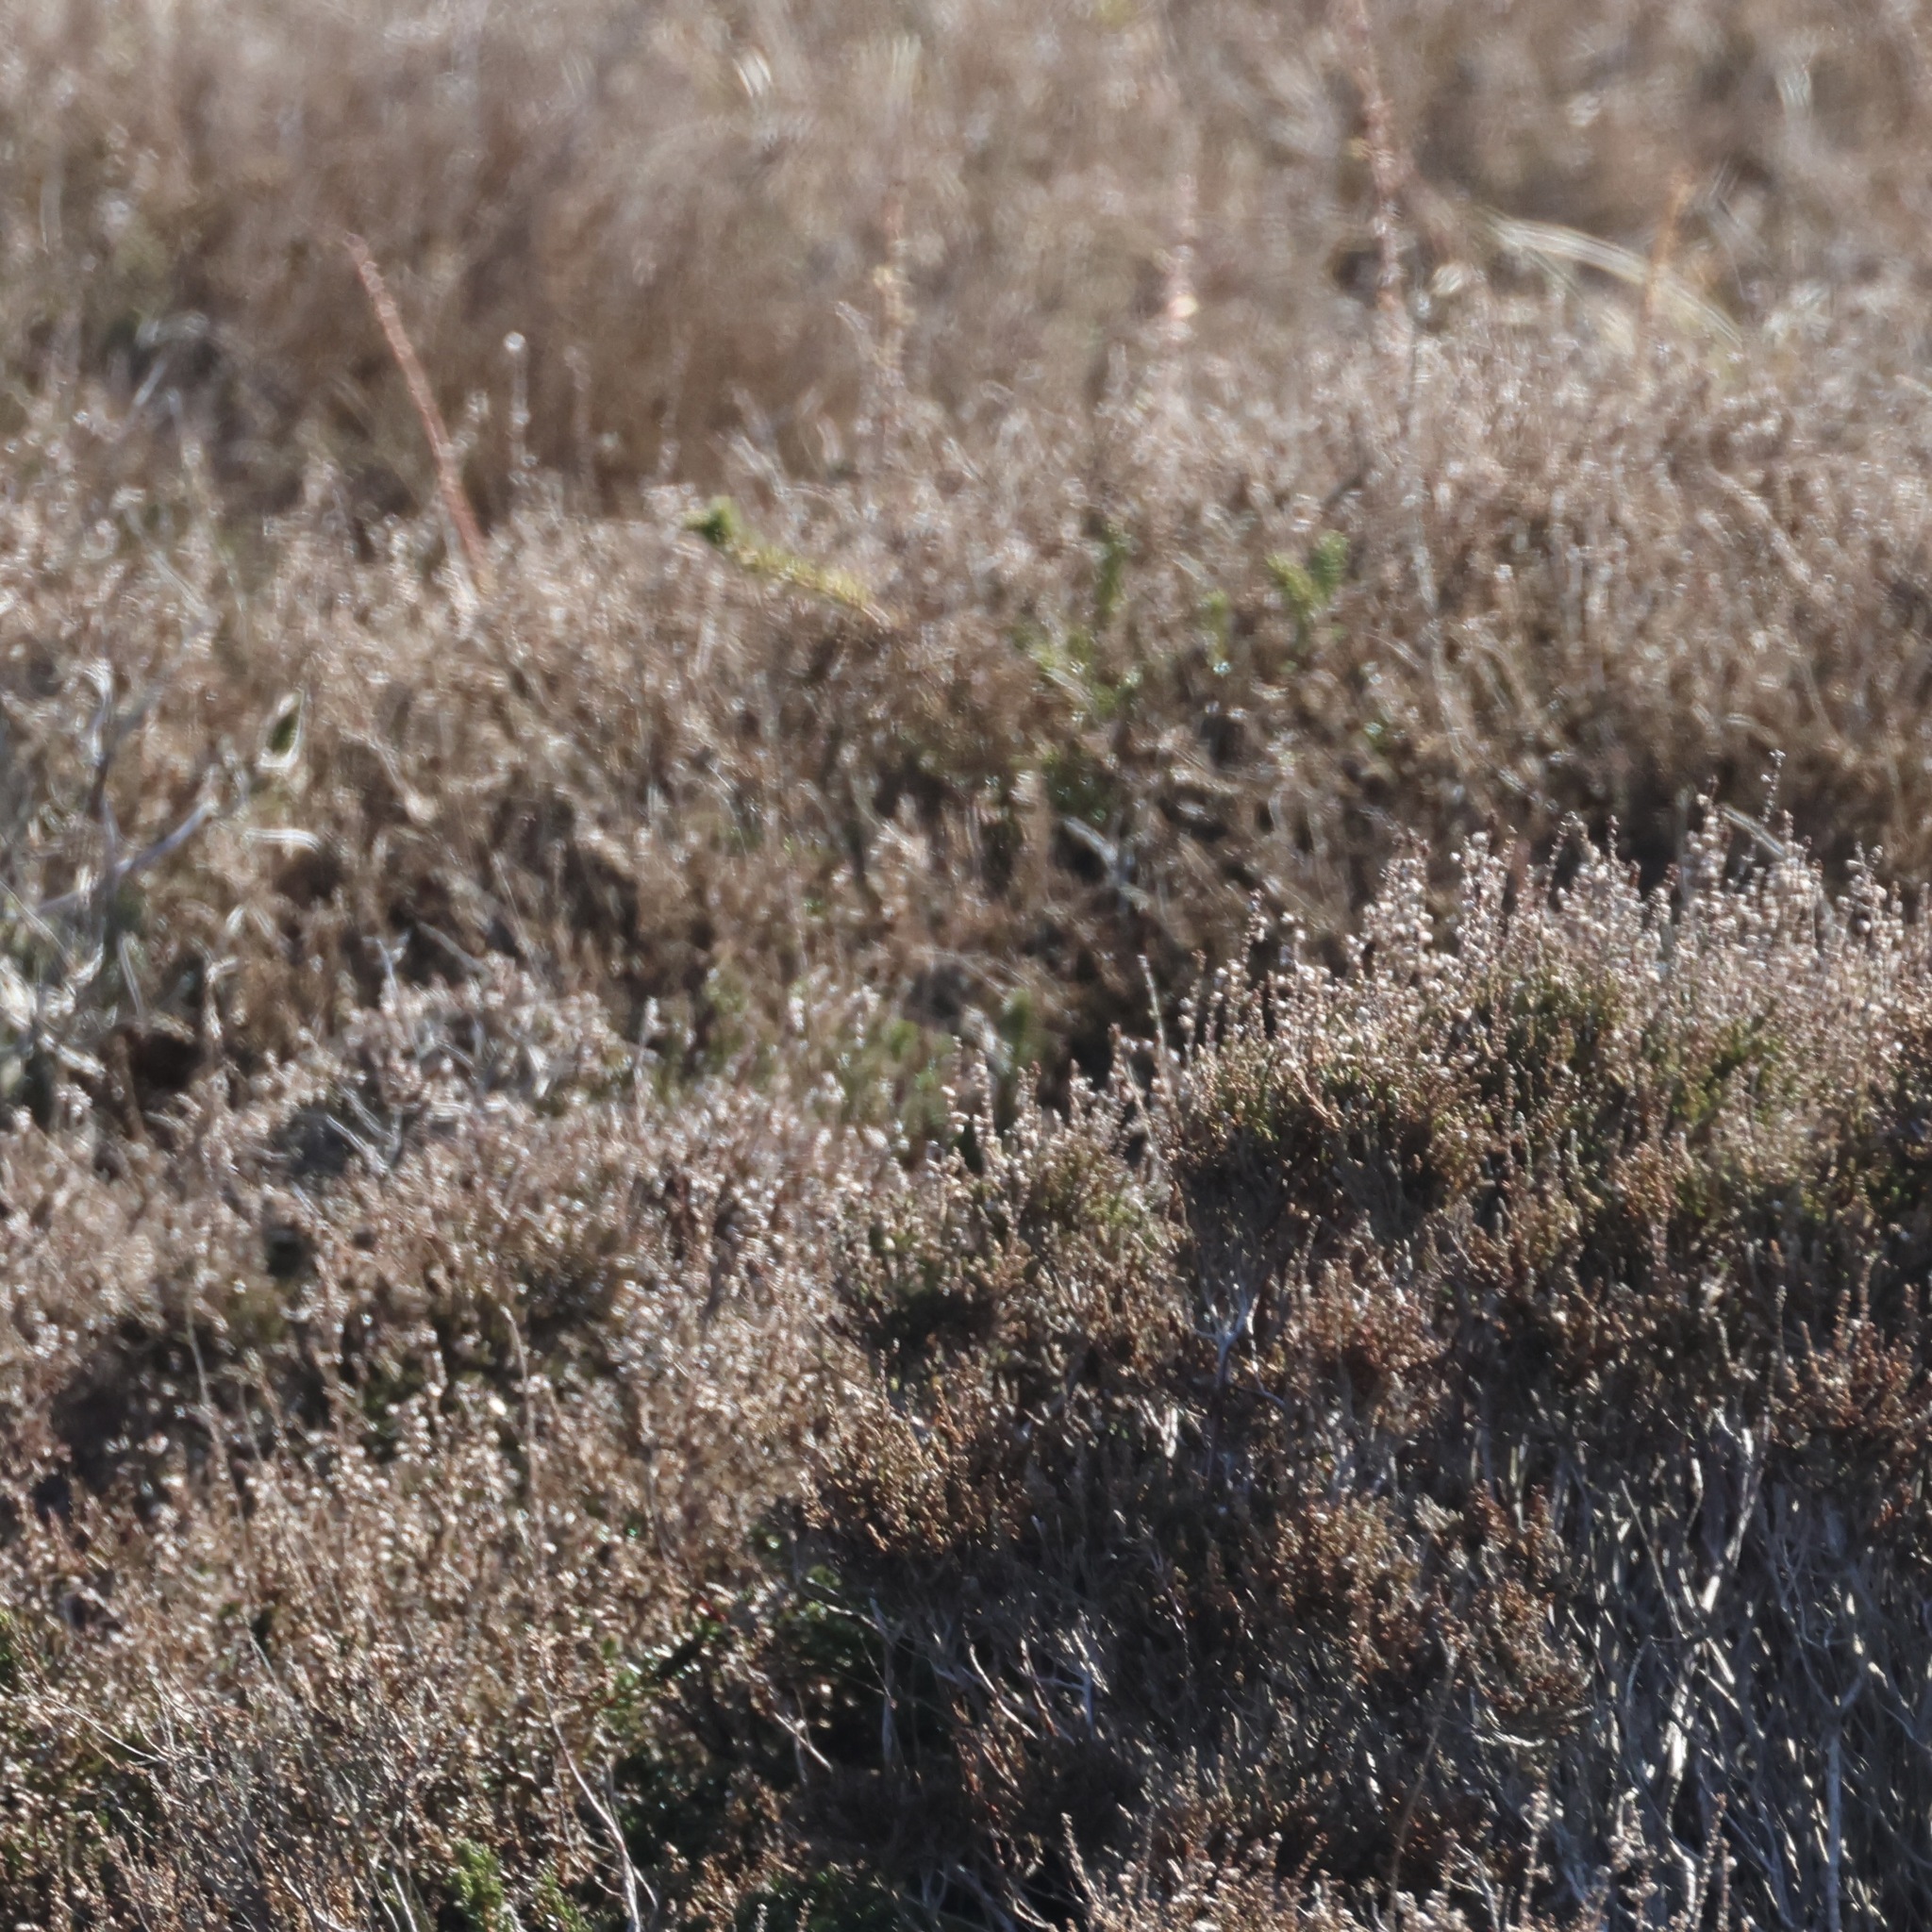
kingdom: Plantae
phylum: Tracheophyta
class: Magnoliopsida
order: Ericales
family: Ericaceae
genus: Calluna
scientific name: Calluna vulgaris
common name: Heather
